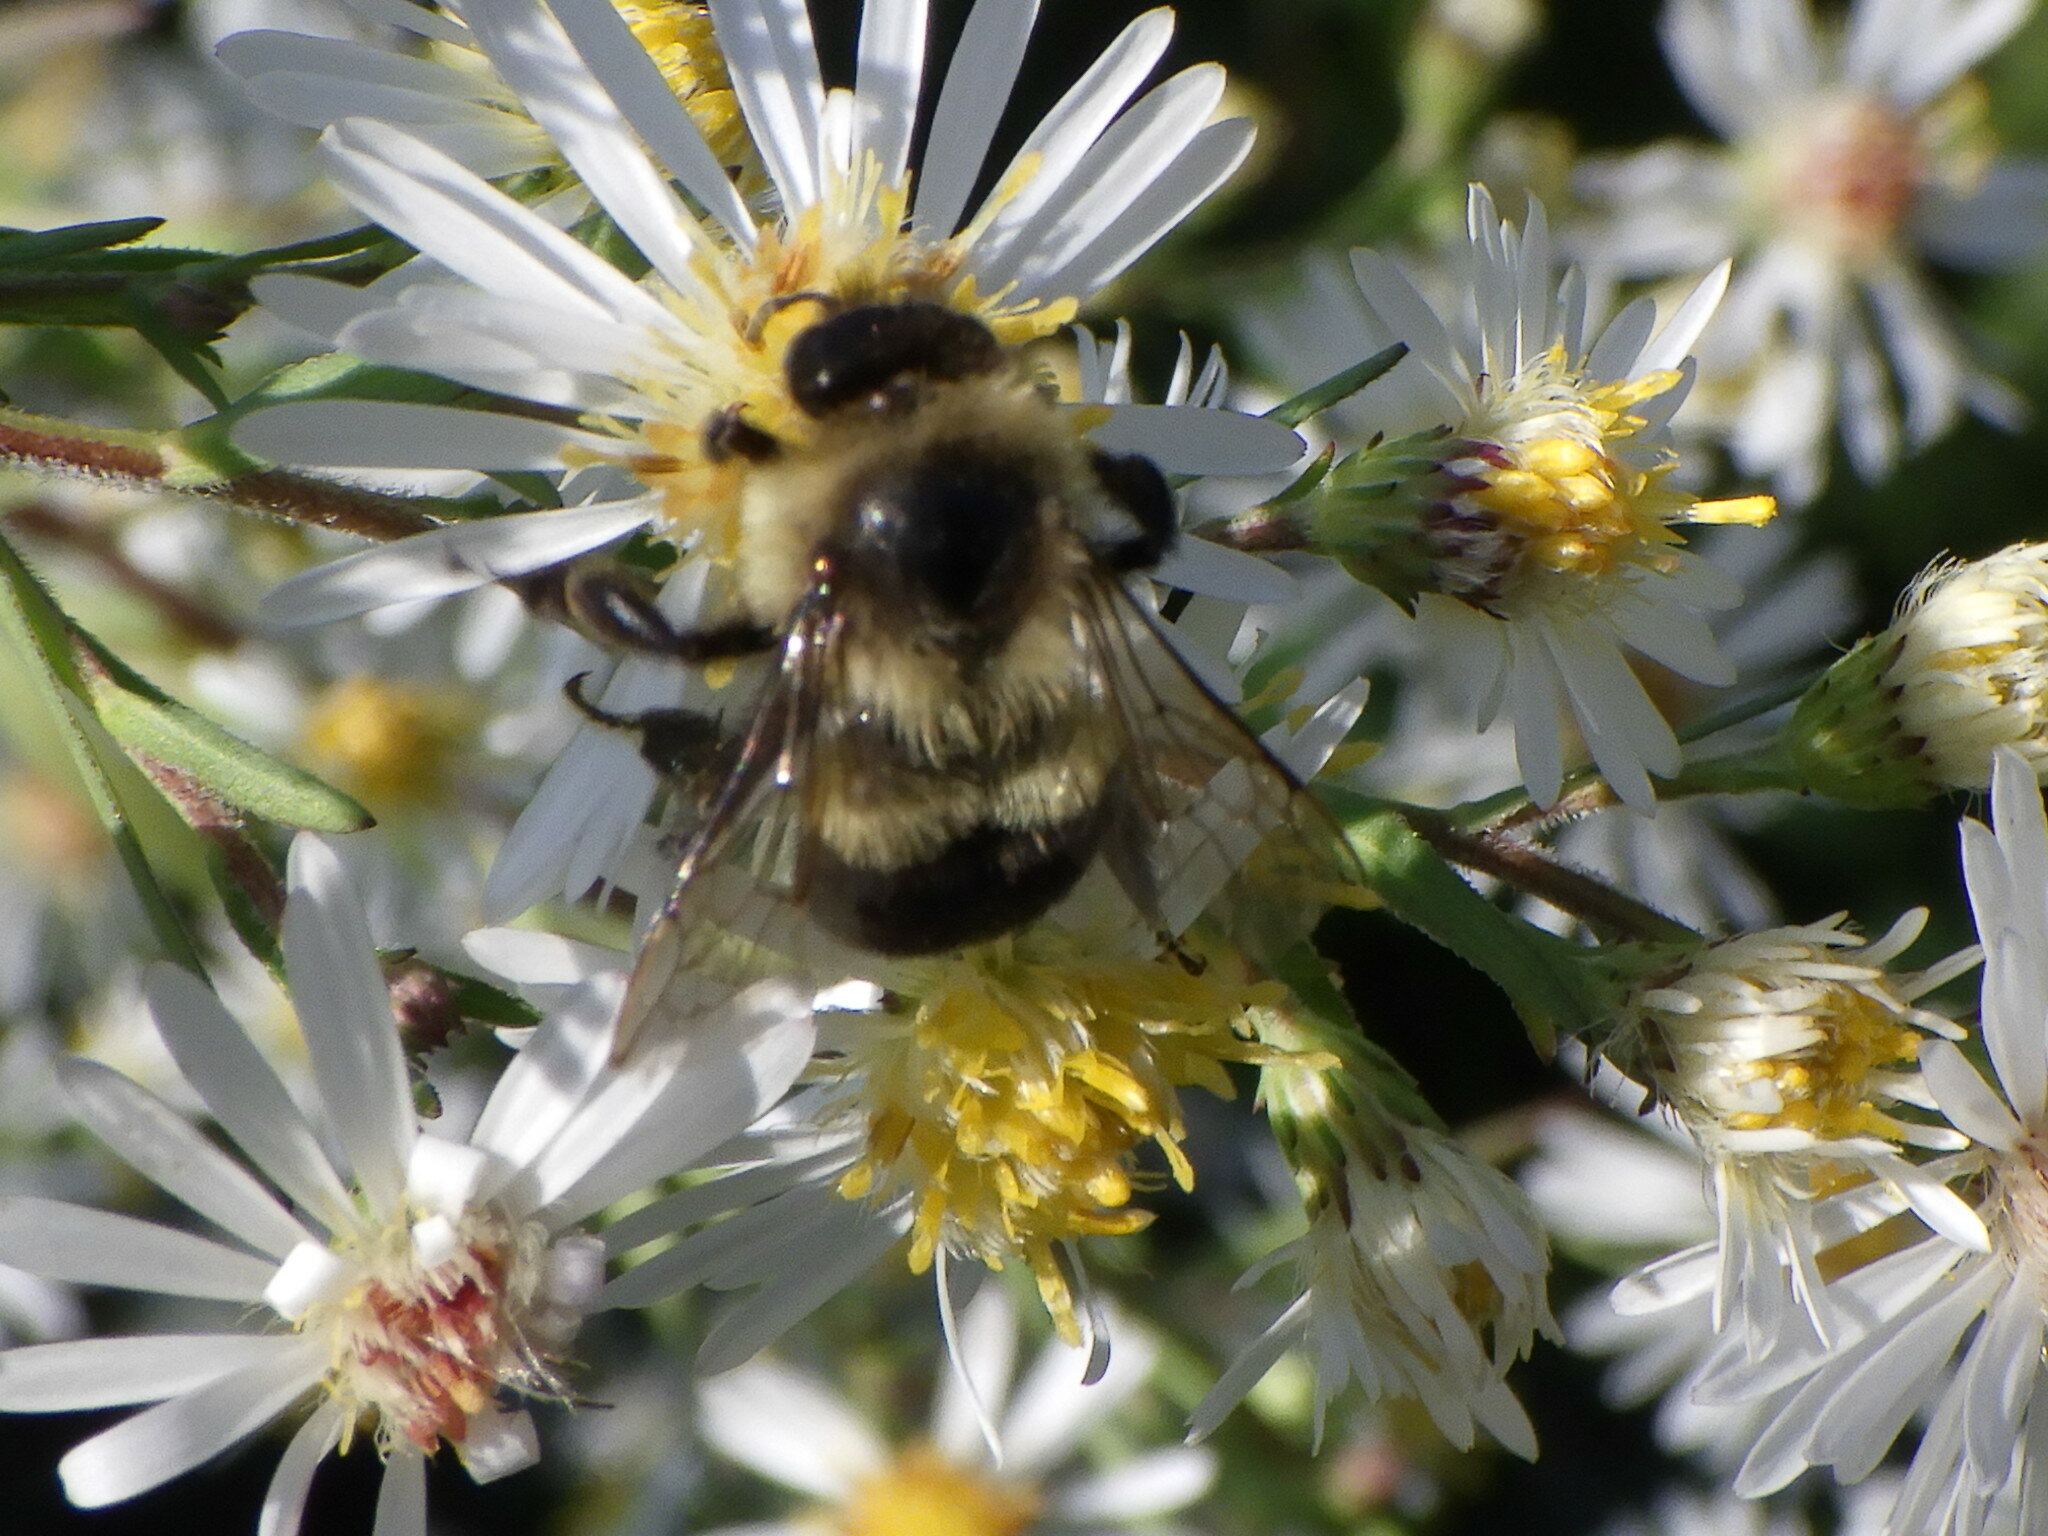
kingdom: Animalia
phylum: Arthropoda
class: Insecta
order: Hymenoptera
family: Apidae
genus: Bombus
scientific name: Bombus impatiens
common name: Common eastern bumble bee
